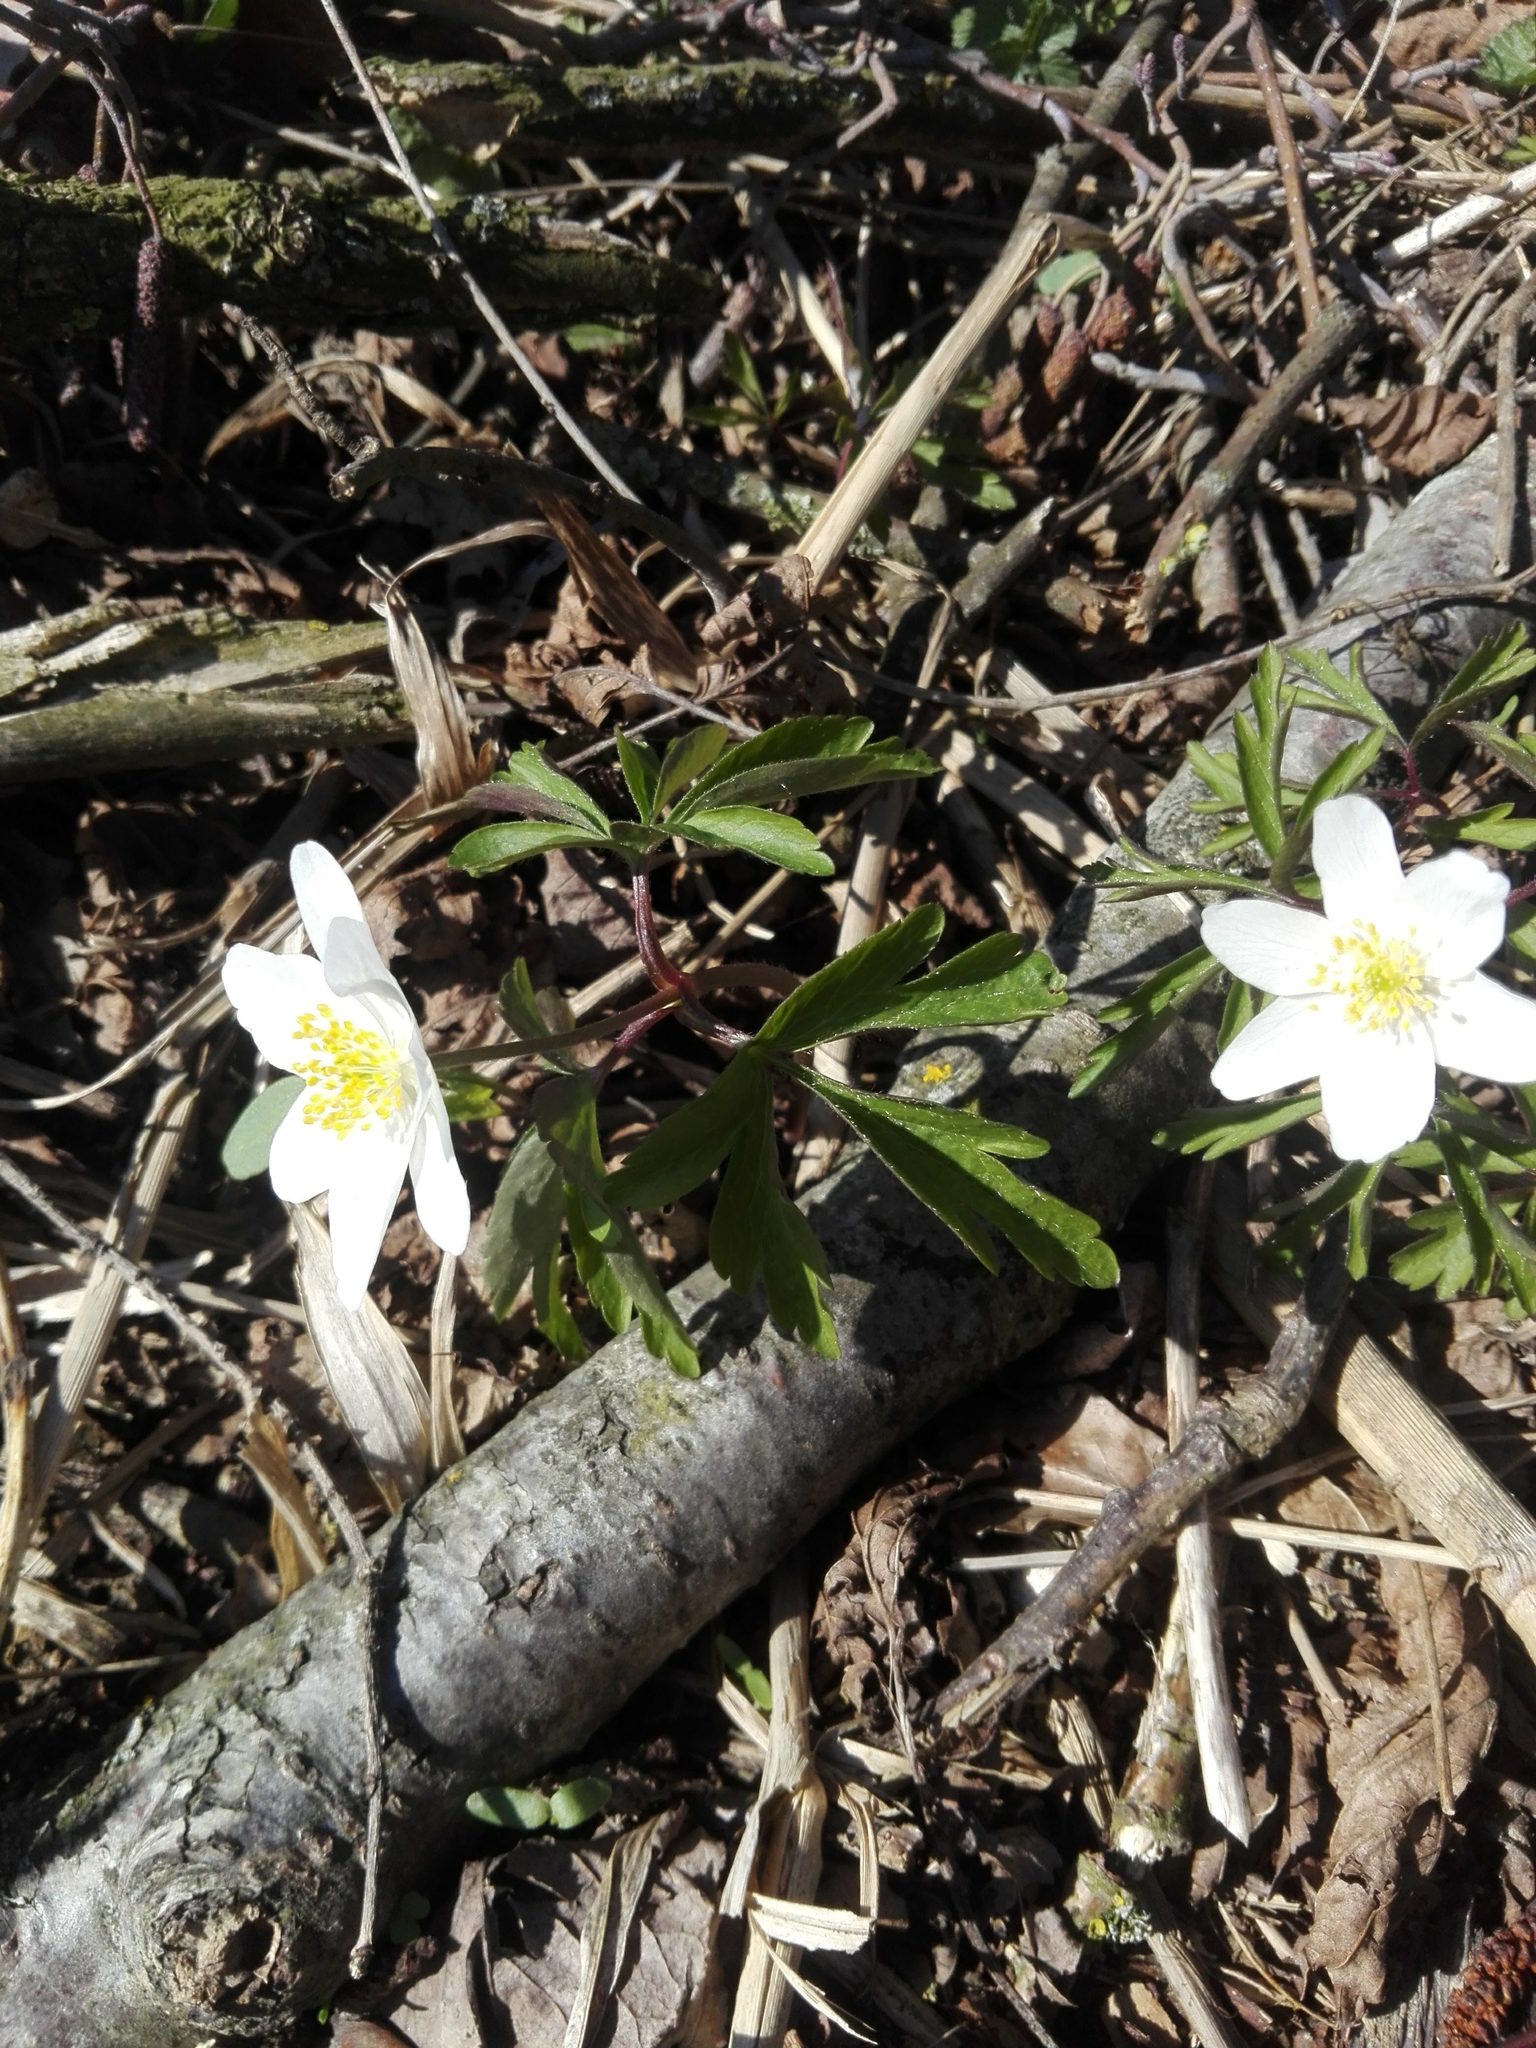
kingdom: Plantae
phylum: Tracheophyta
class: Magnoliopsida
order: Ranunculales
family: Ranunculaceae
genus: Anemone
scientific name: Anemone nemorosa
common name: Wood anemone
